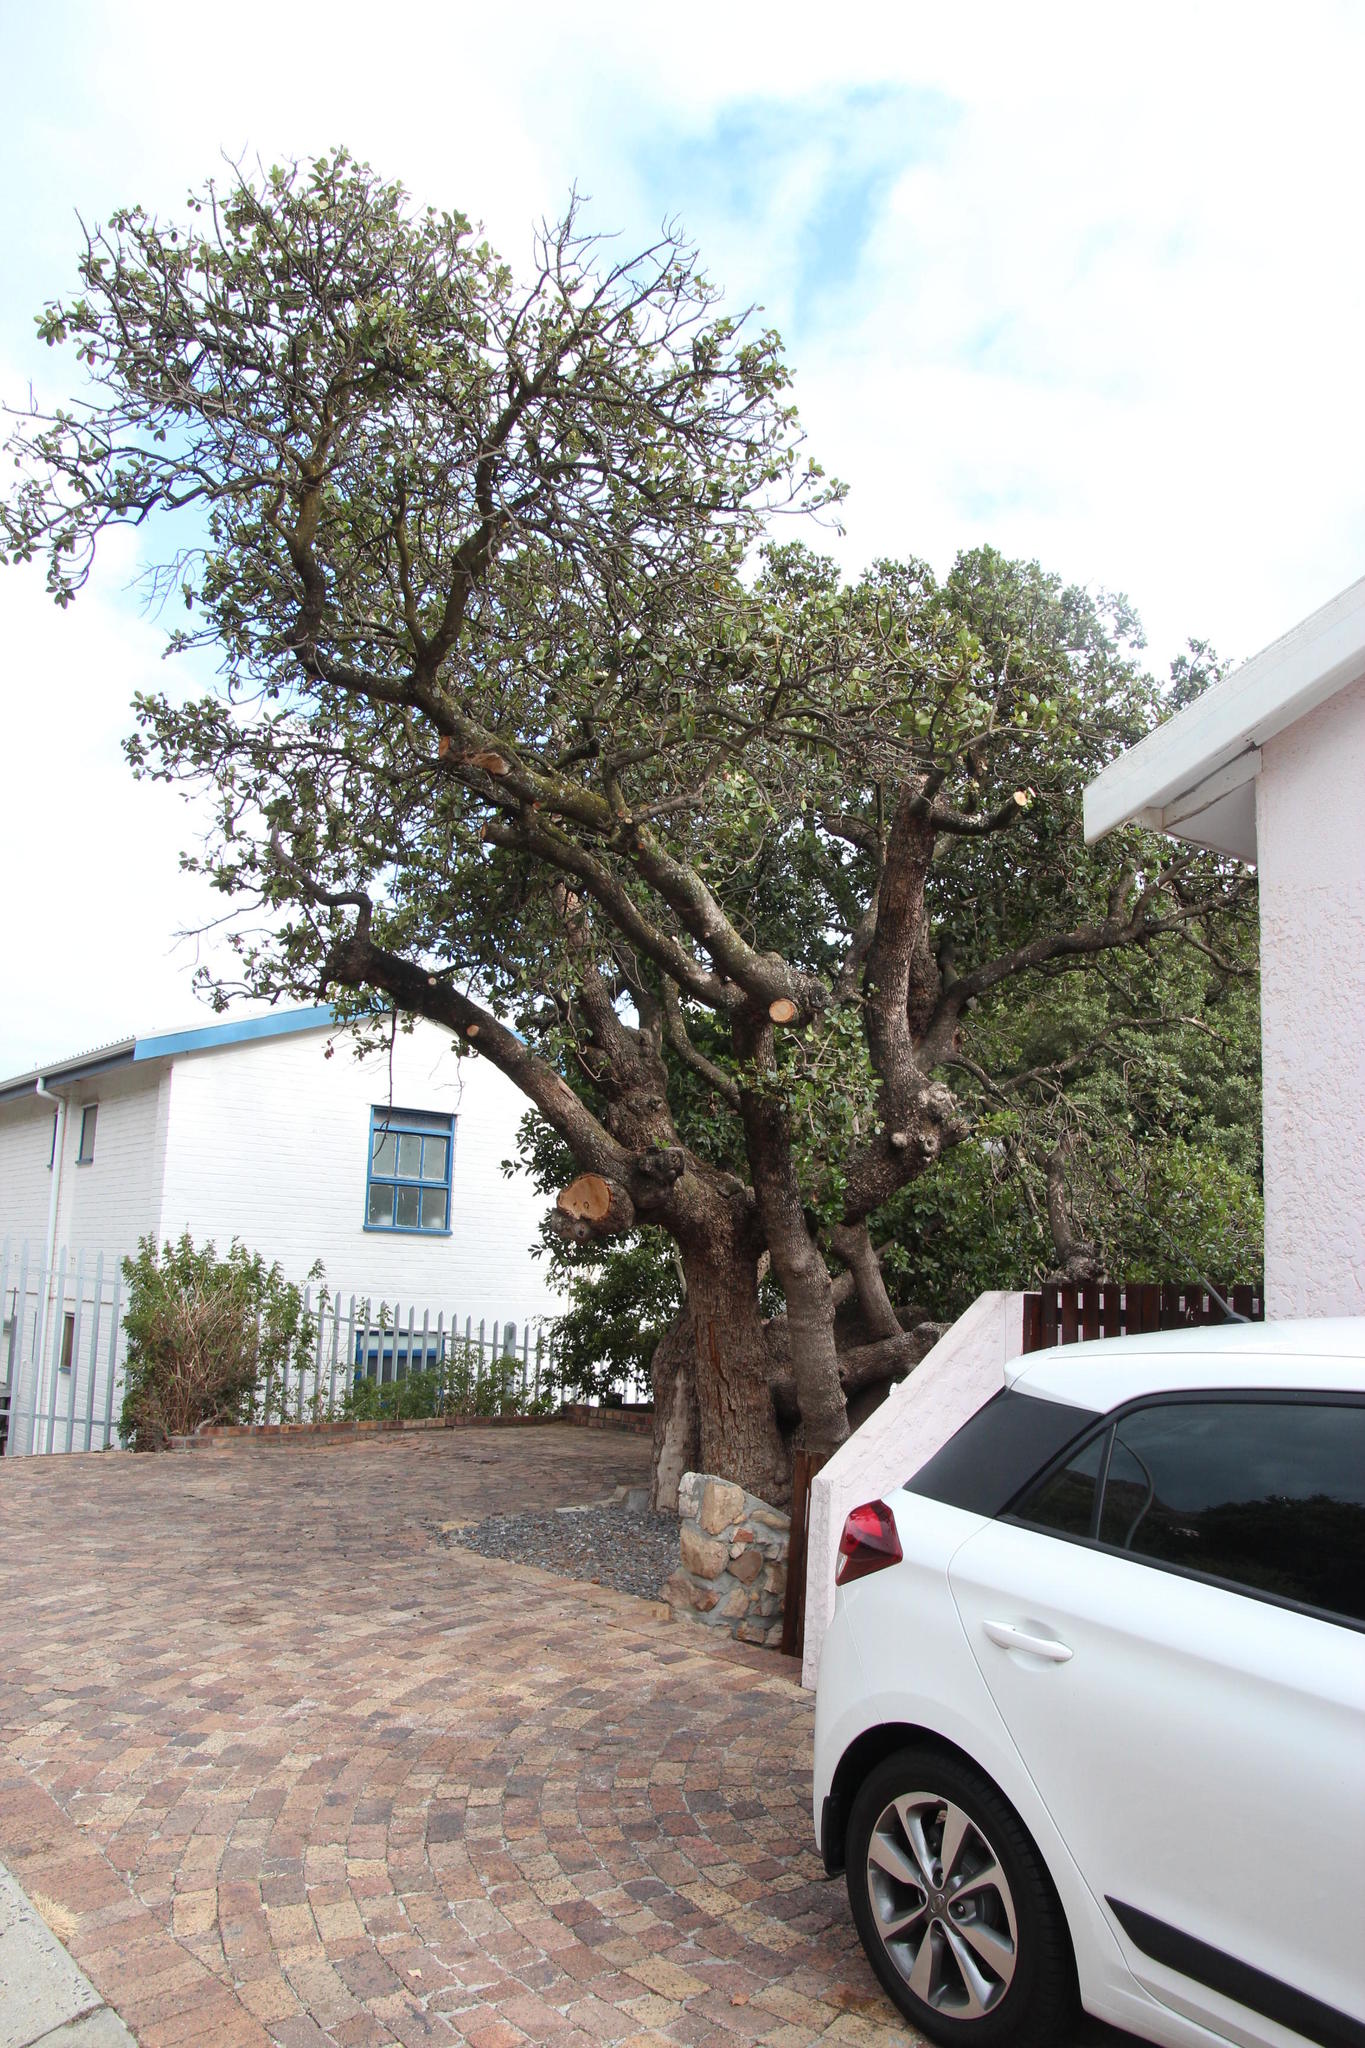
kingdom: Plantae
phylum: Tracheophyta
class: Magnoliopsida
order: Ericales
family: Sapotaceae
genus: Sideroxylon
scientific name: Sideroxylon inerme
